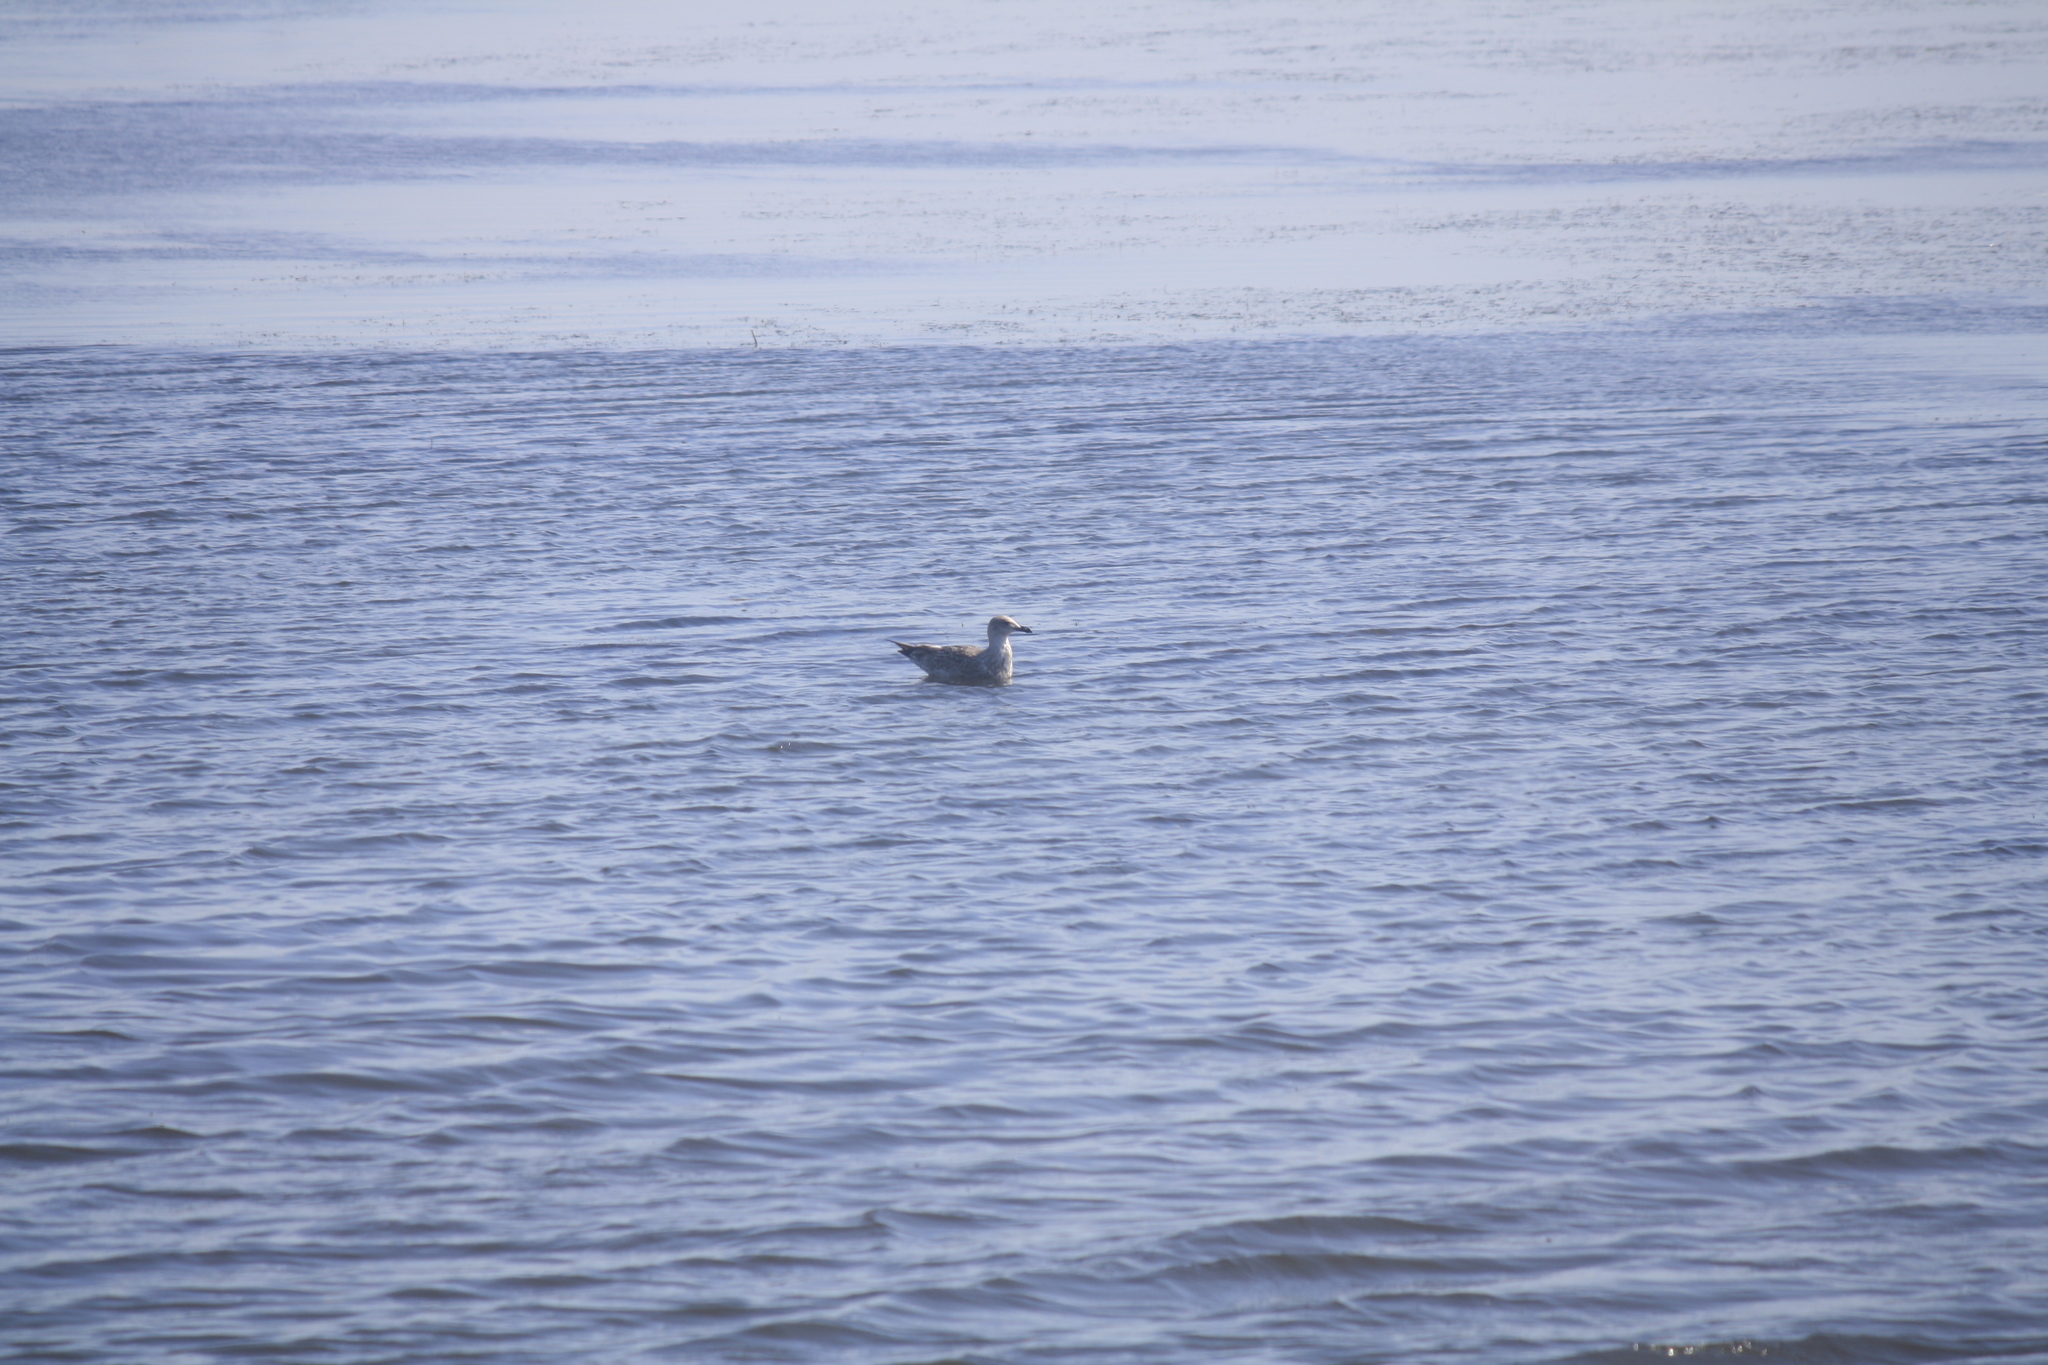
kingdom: Animalia
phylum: Chordata
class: Aves
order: Charadriiformes
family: Laridae
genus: Larus
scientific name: Larus argentatus
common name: Herring gull
